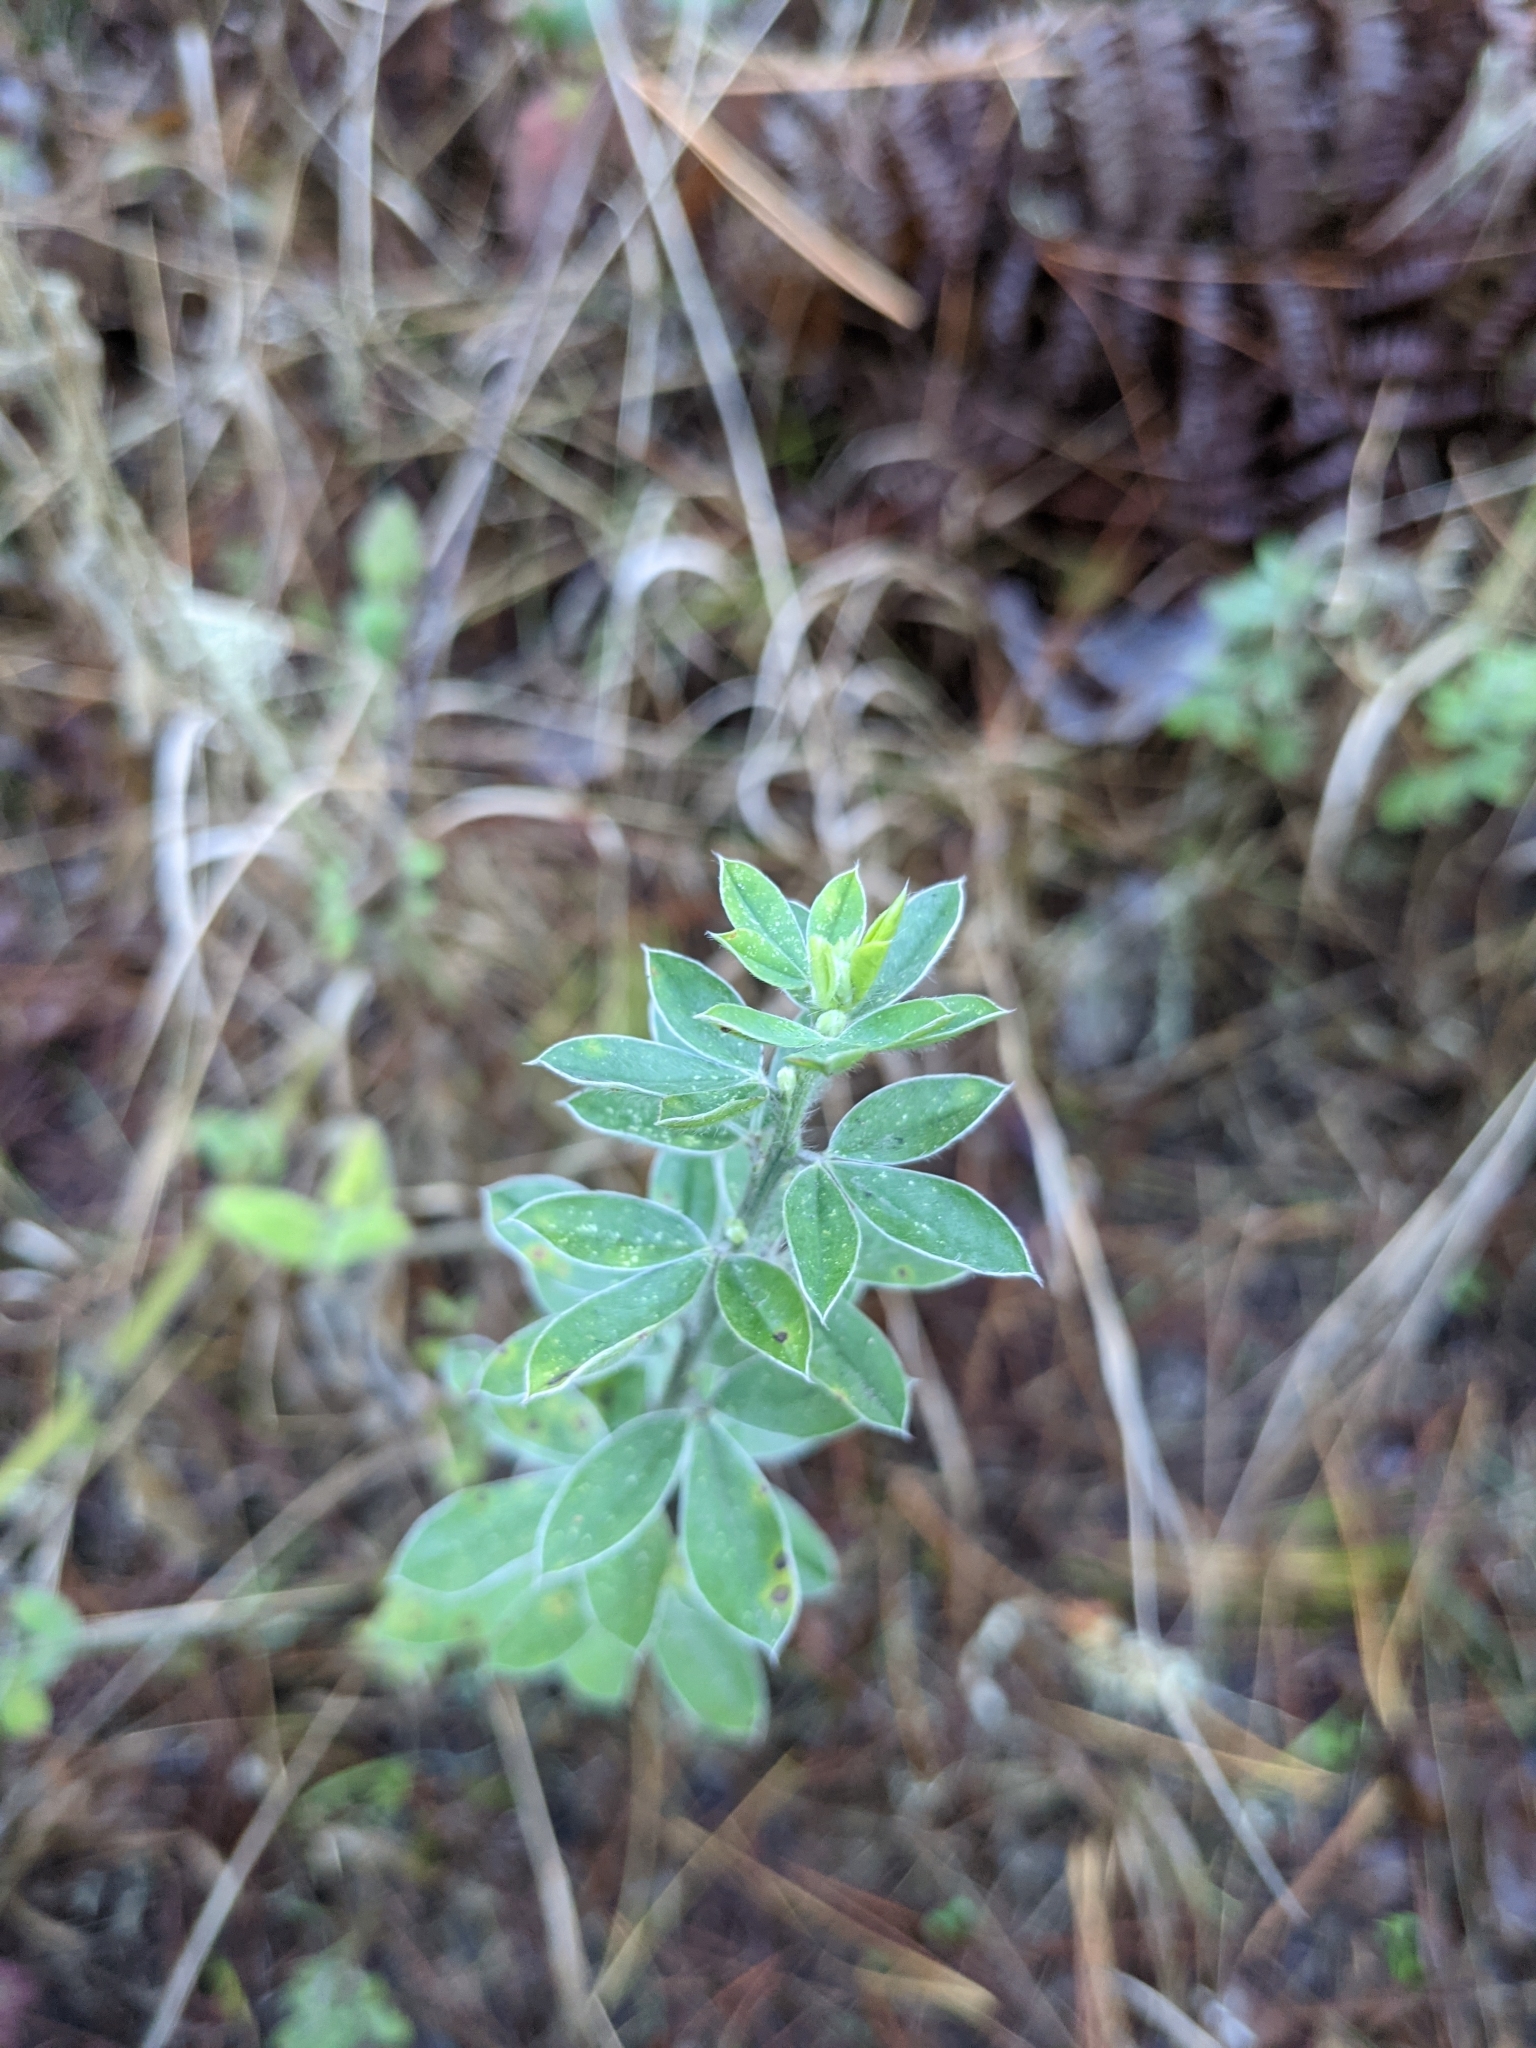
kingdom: Plantae
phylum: Tracheophyta
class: Magnoliopsida
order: Fabales
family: Fabaceae
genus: Genista
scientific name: Genista monspessulana
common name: Montpellier broom
